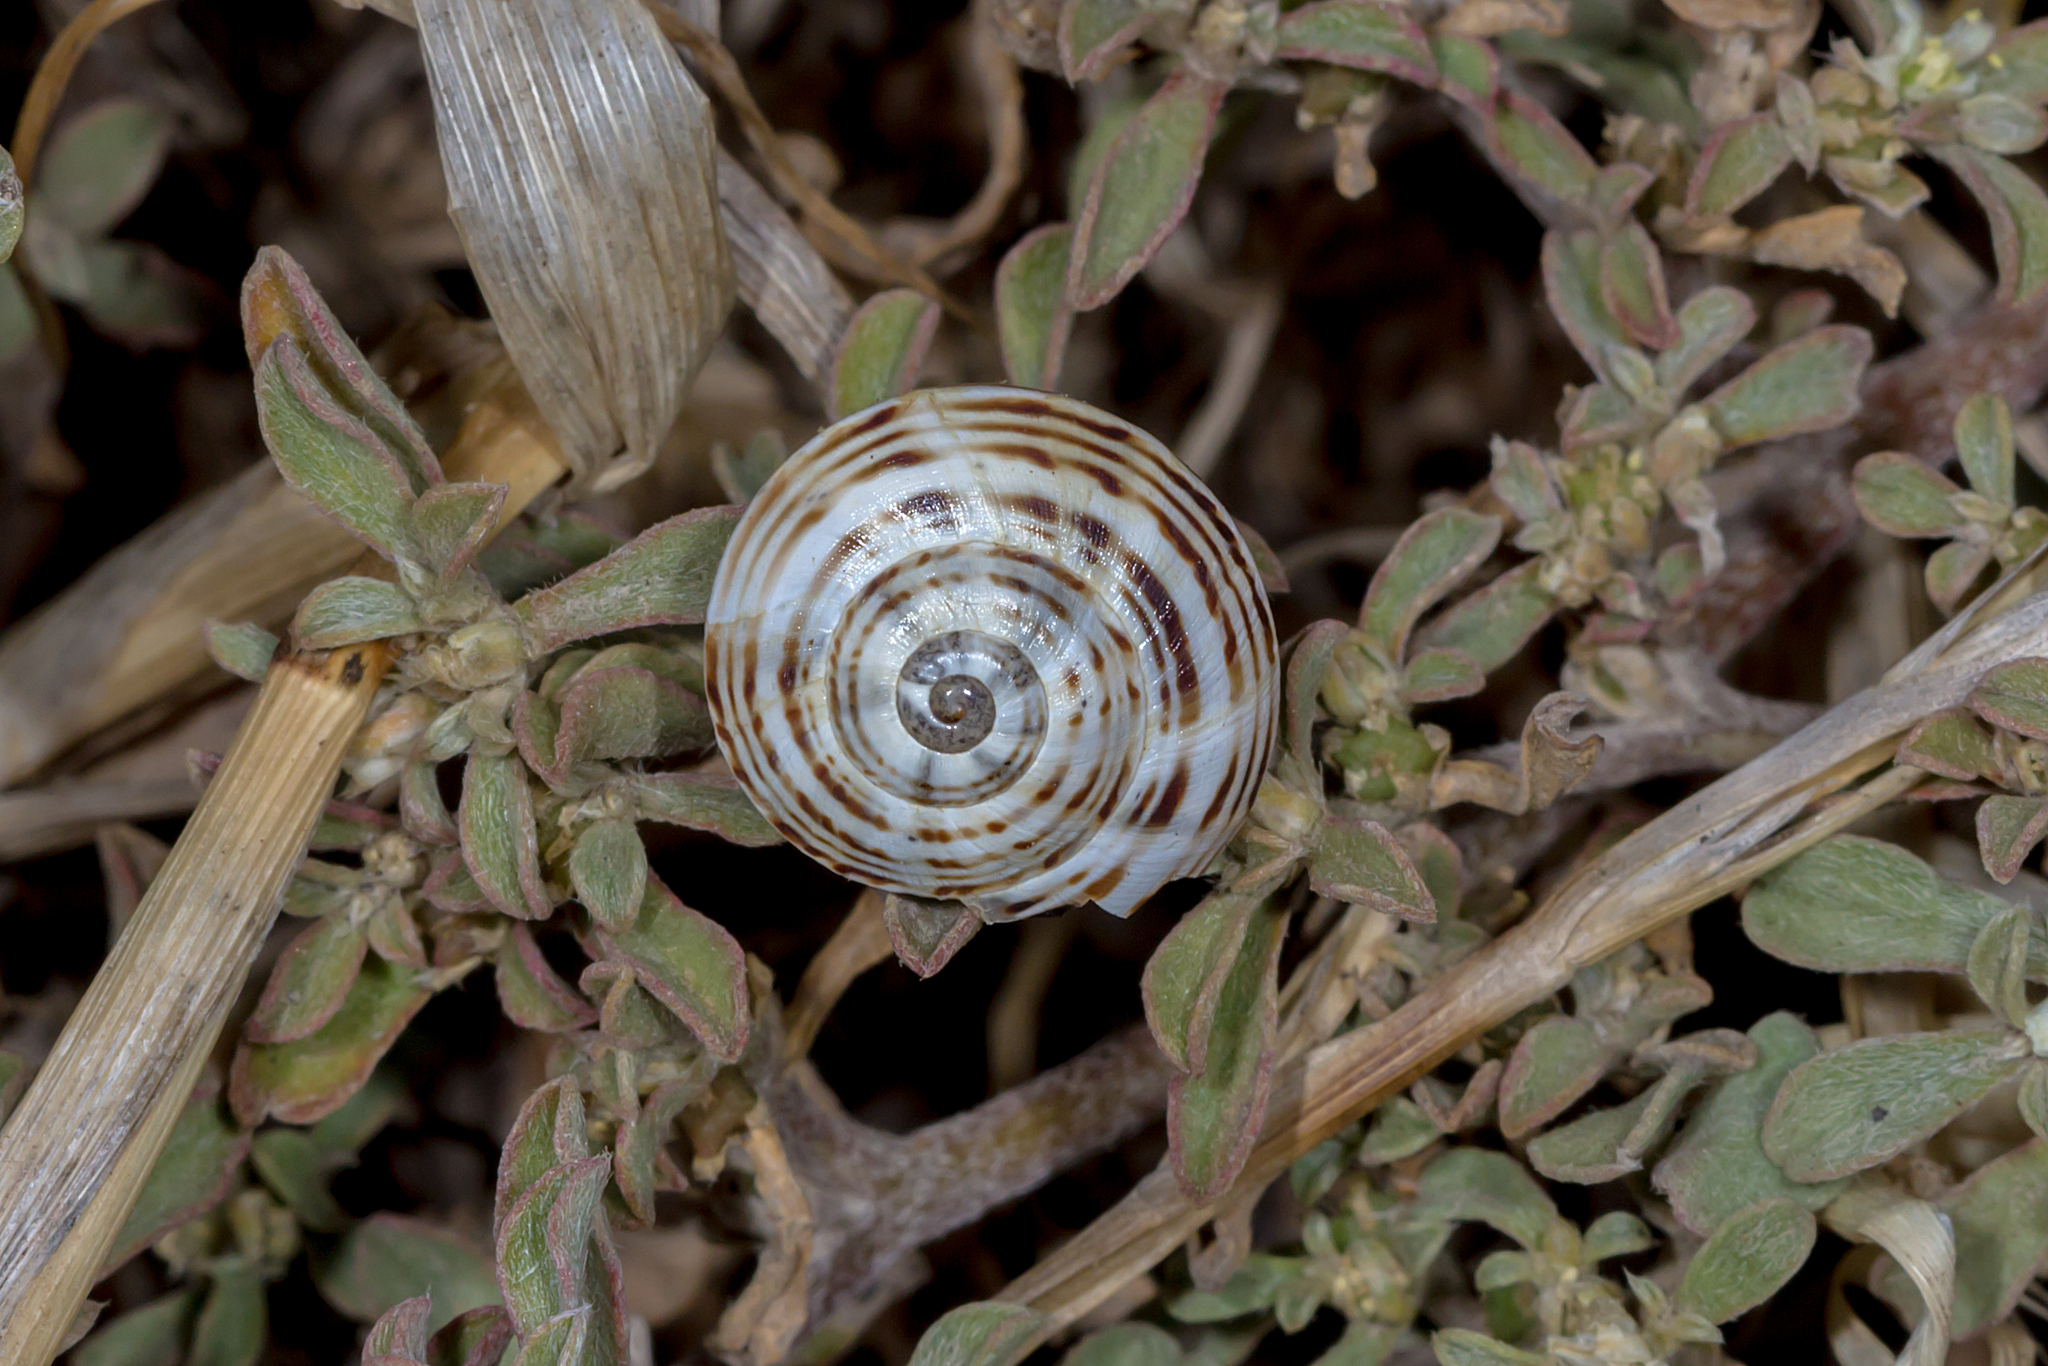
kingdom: Animalia
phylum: Mollusca
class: Gastropoda
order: Stylommatophora
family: Helicidae
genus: Theba
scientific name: Theba pisana
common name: White snail
